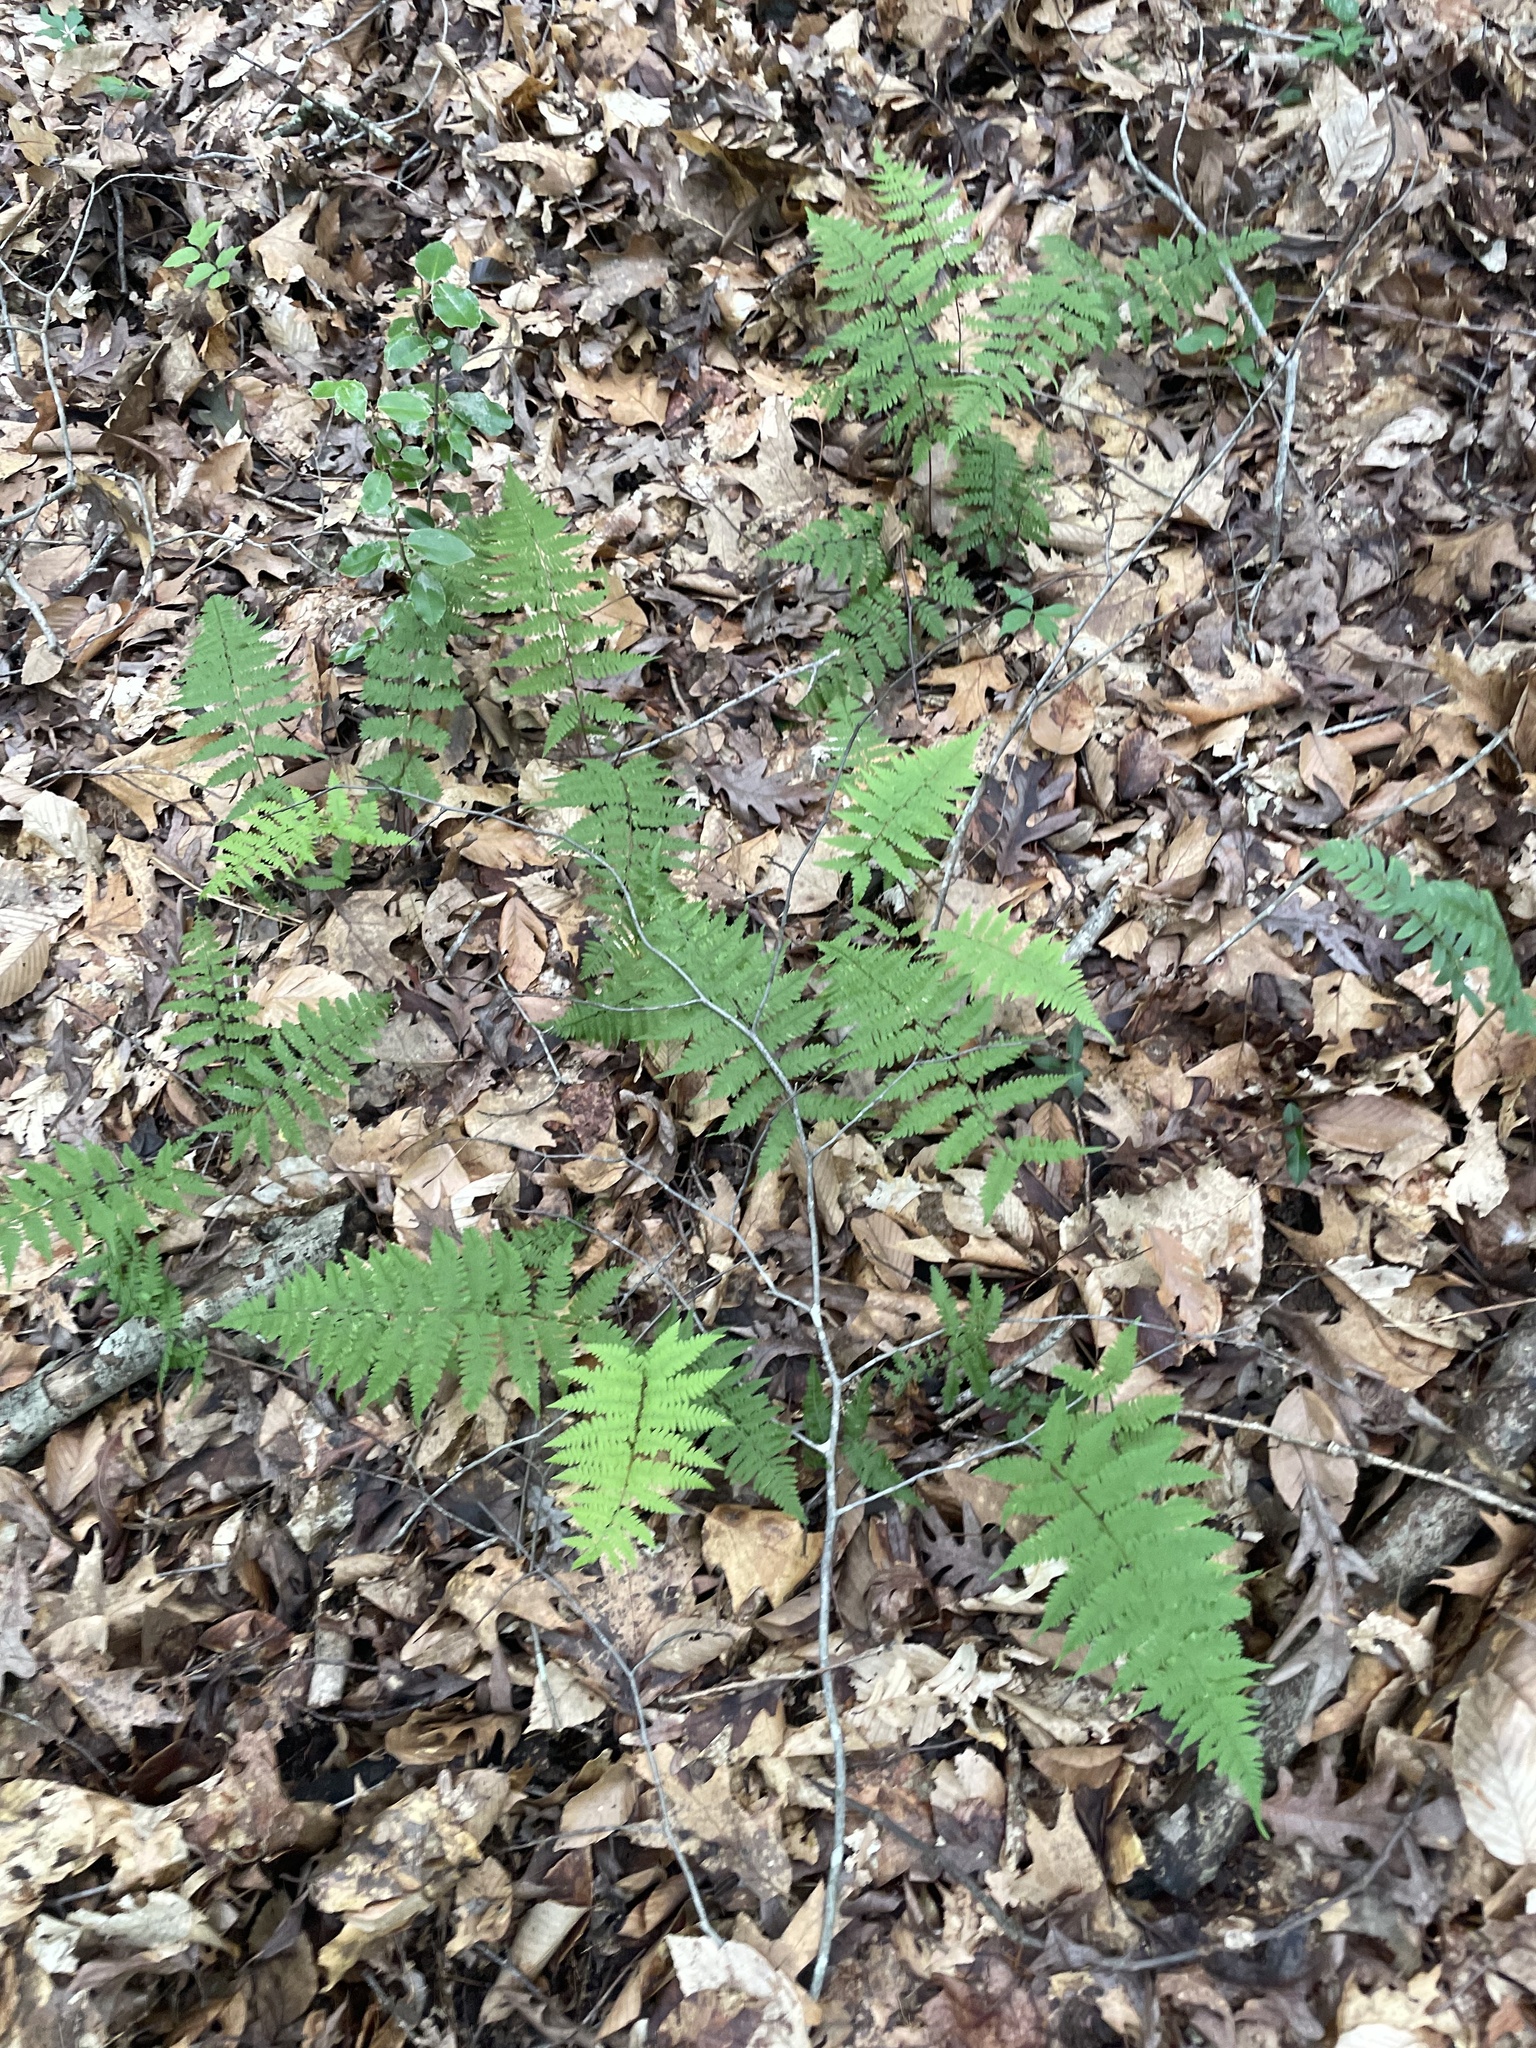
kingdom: Plantae
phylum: Tracheophyta
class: Polypodiopsida
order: Polypodiales
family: Athyriaceae
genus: Athyrium
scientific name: Athyrium asplenioides
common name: Southern lady fern
